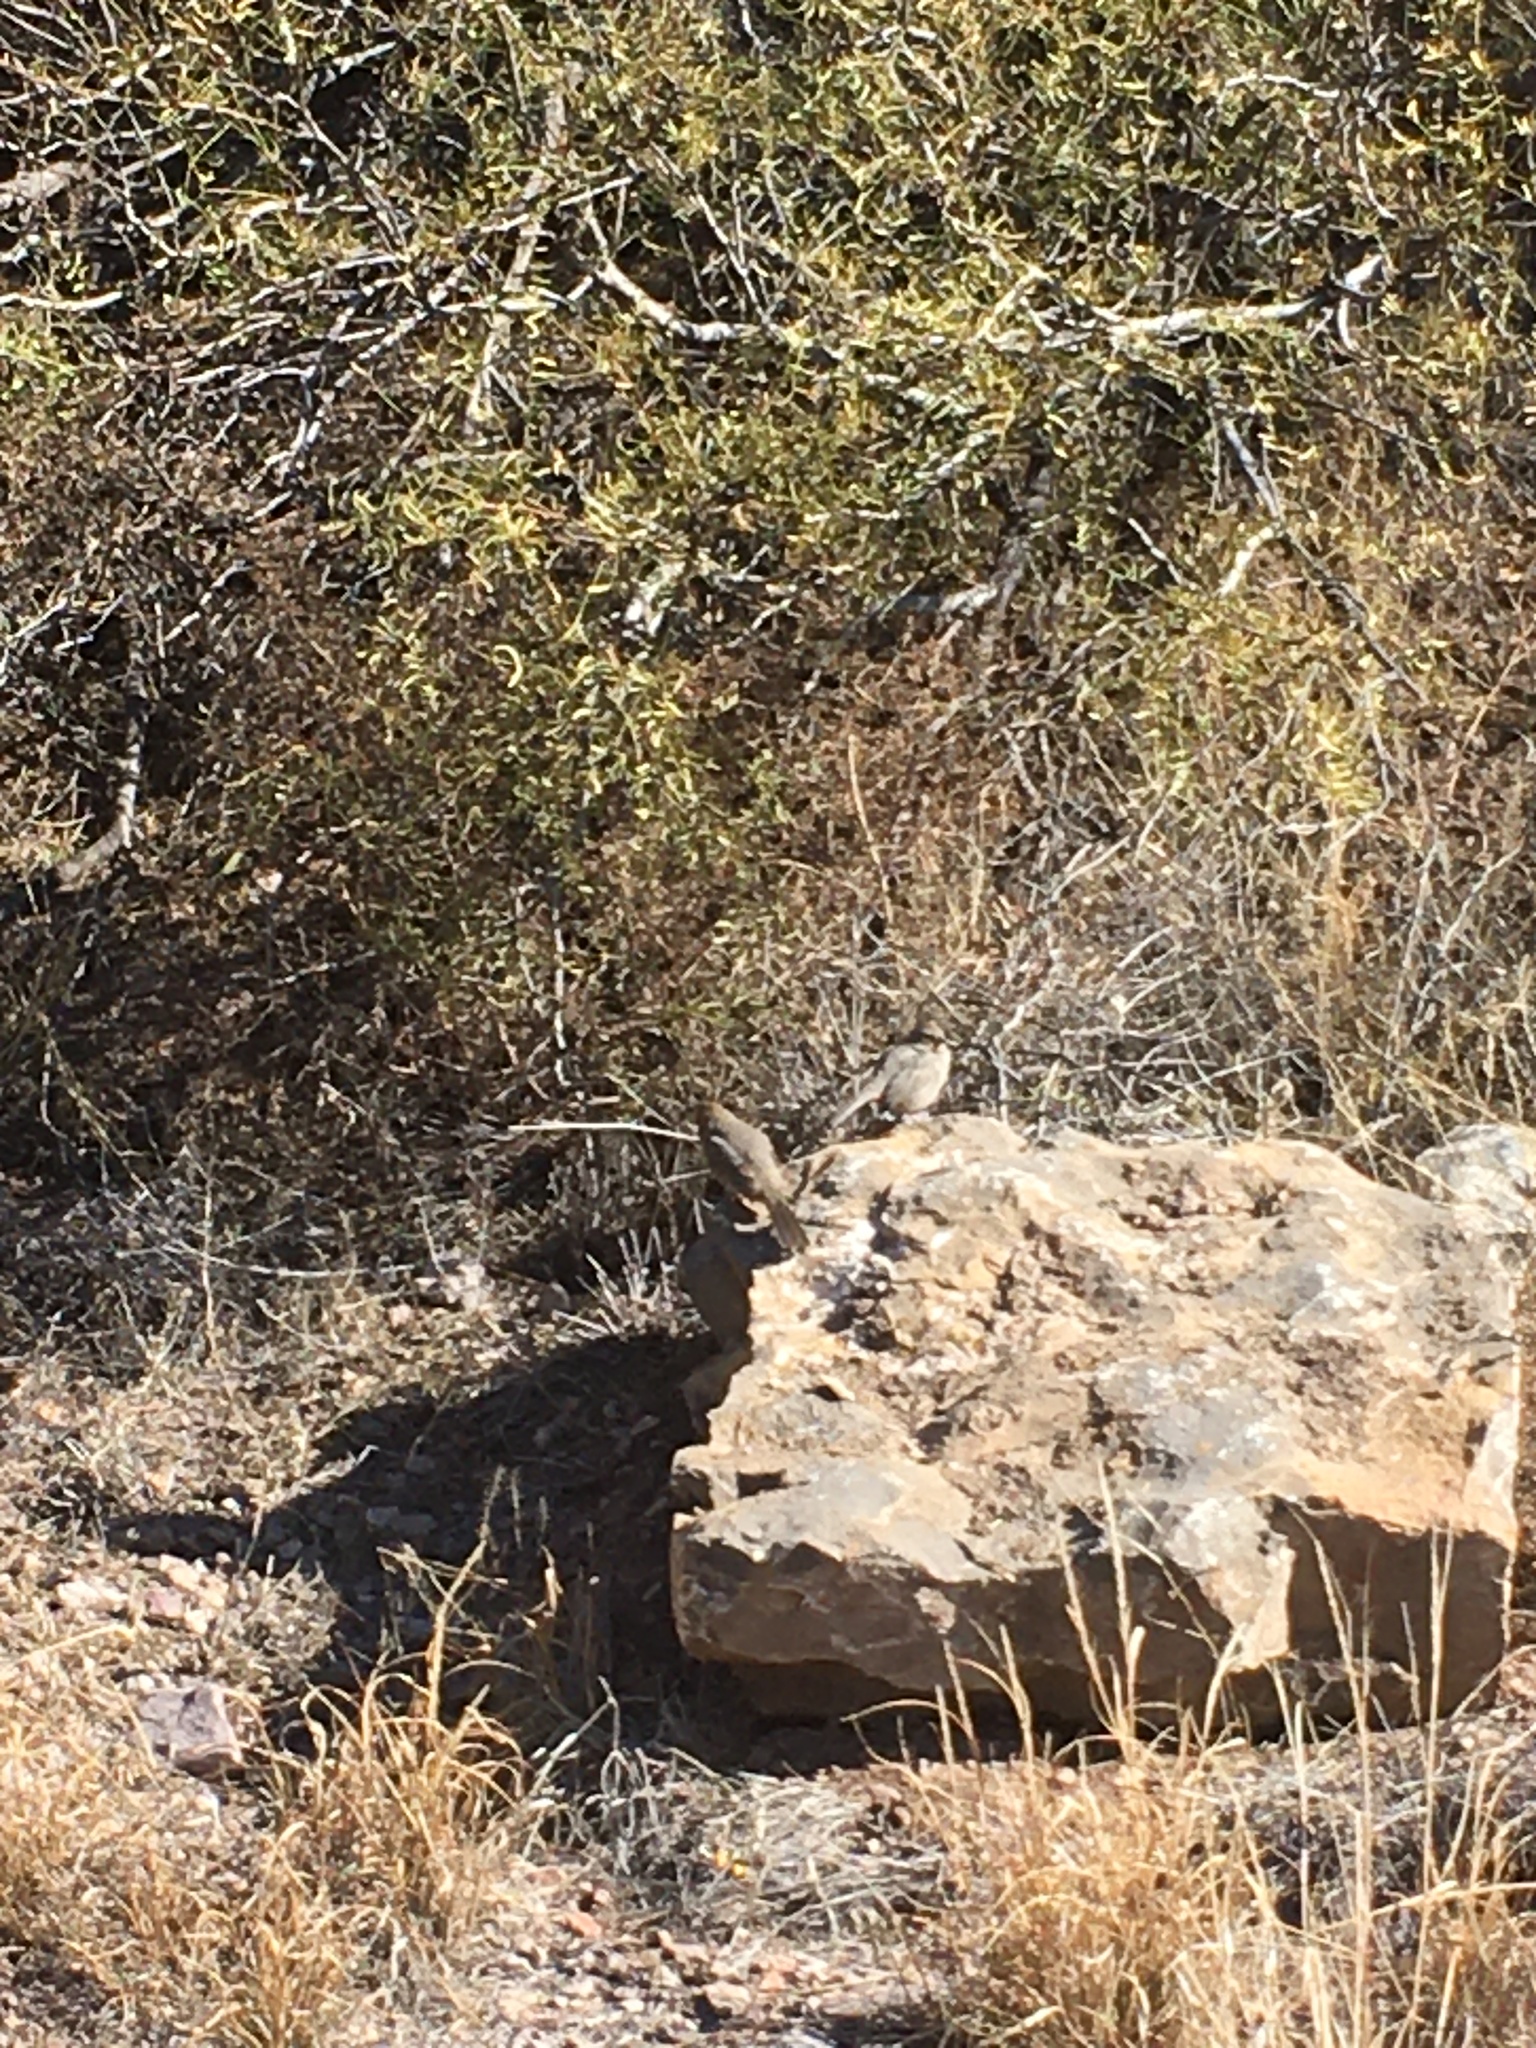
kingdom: Animalia
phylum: Chordata
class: Aves
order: Passeriformes
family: Passerellidae
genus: Melozone
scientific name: Melozone fusca
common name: Canyon towhee
